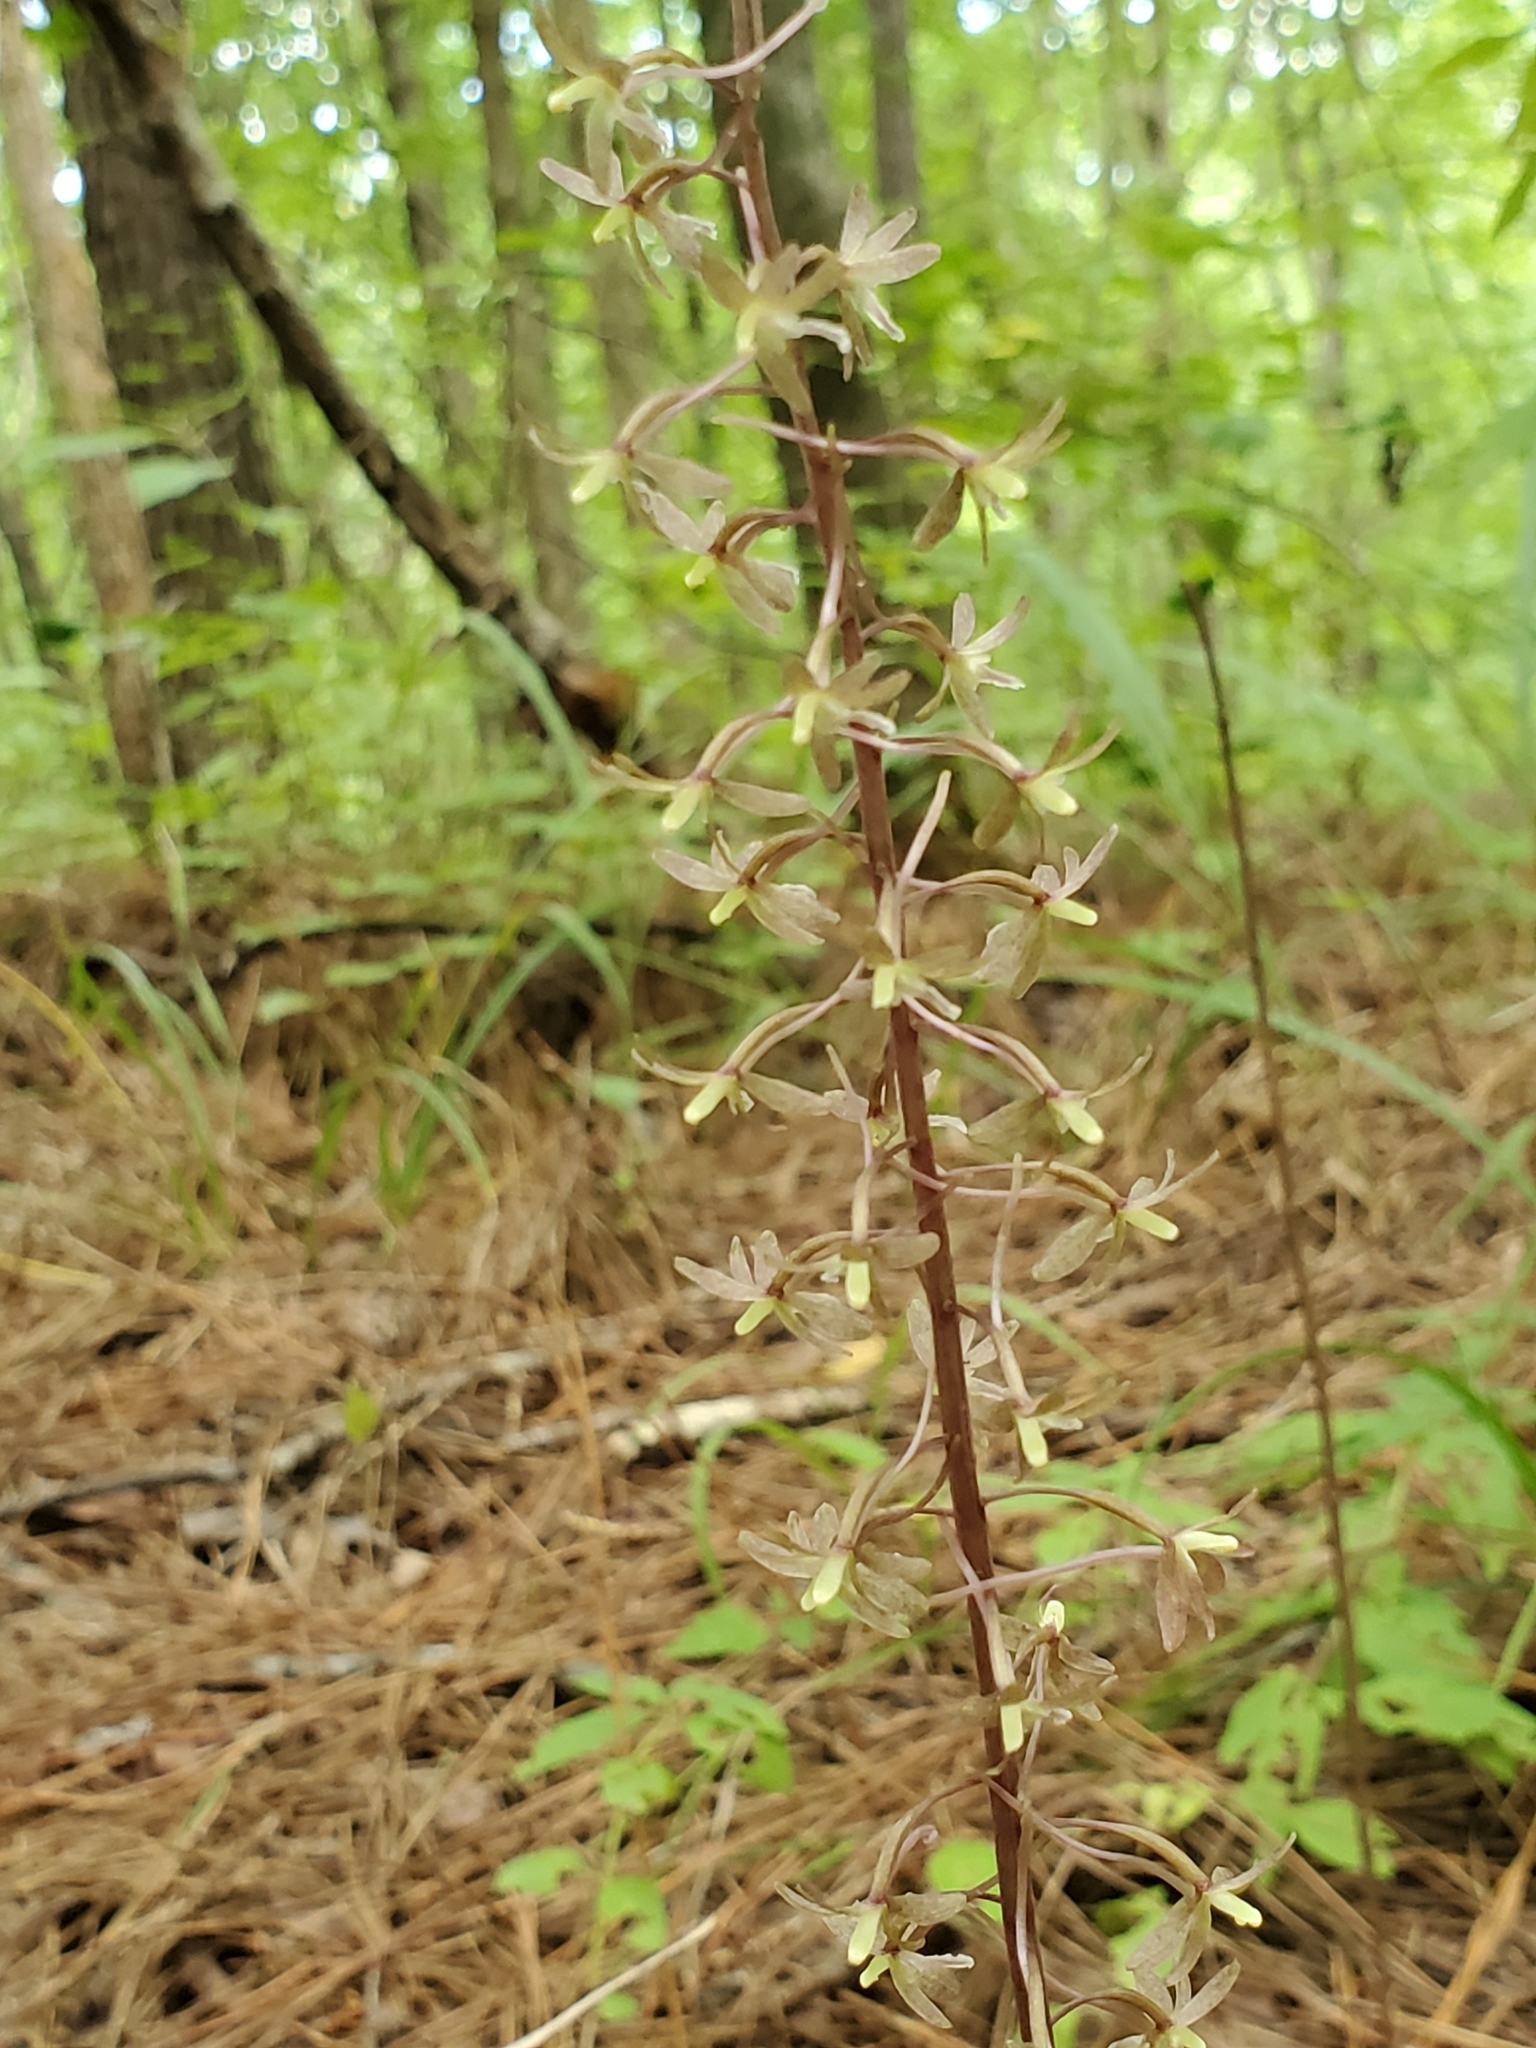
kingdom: Plantae
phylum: Tracheophyta
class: Liliopsida
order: Asparagales
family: Orchidaceae
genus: Tipularia
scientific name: Tipularia discolor
